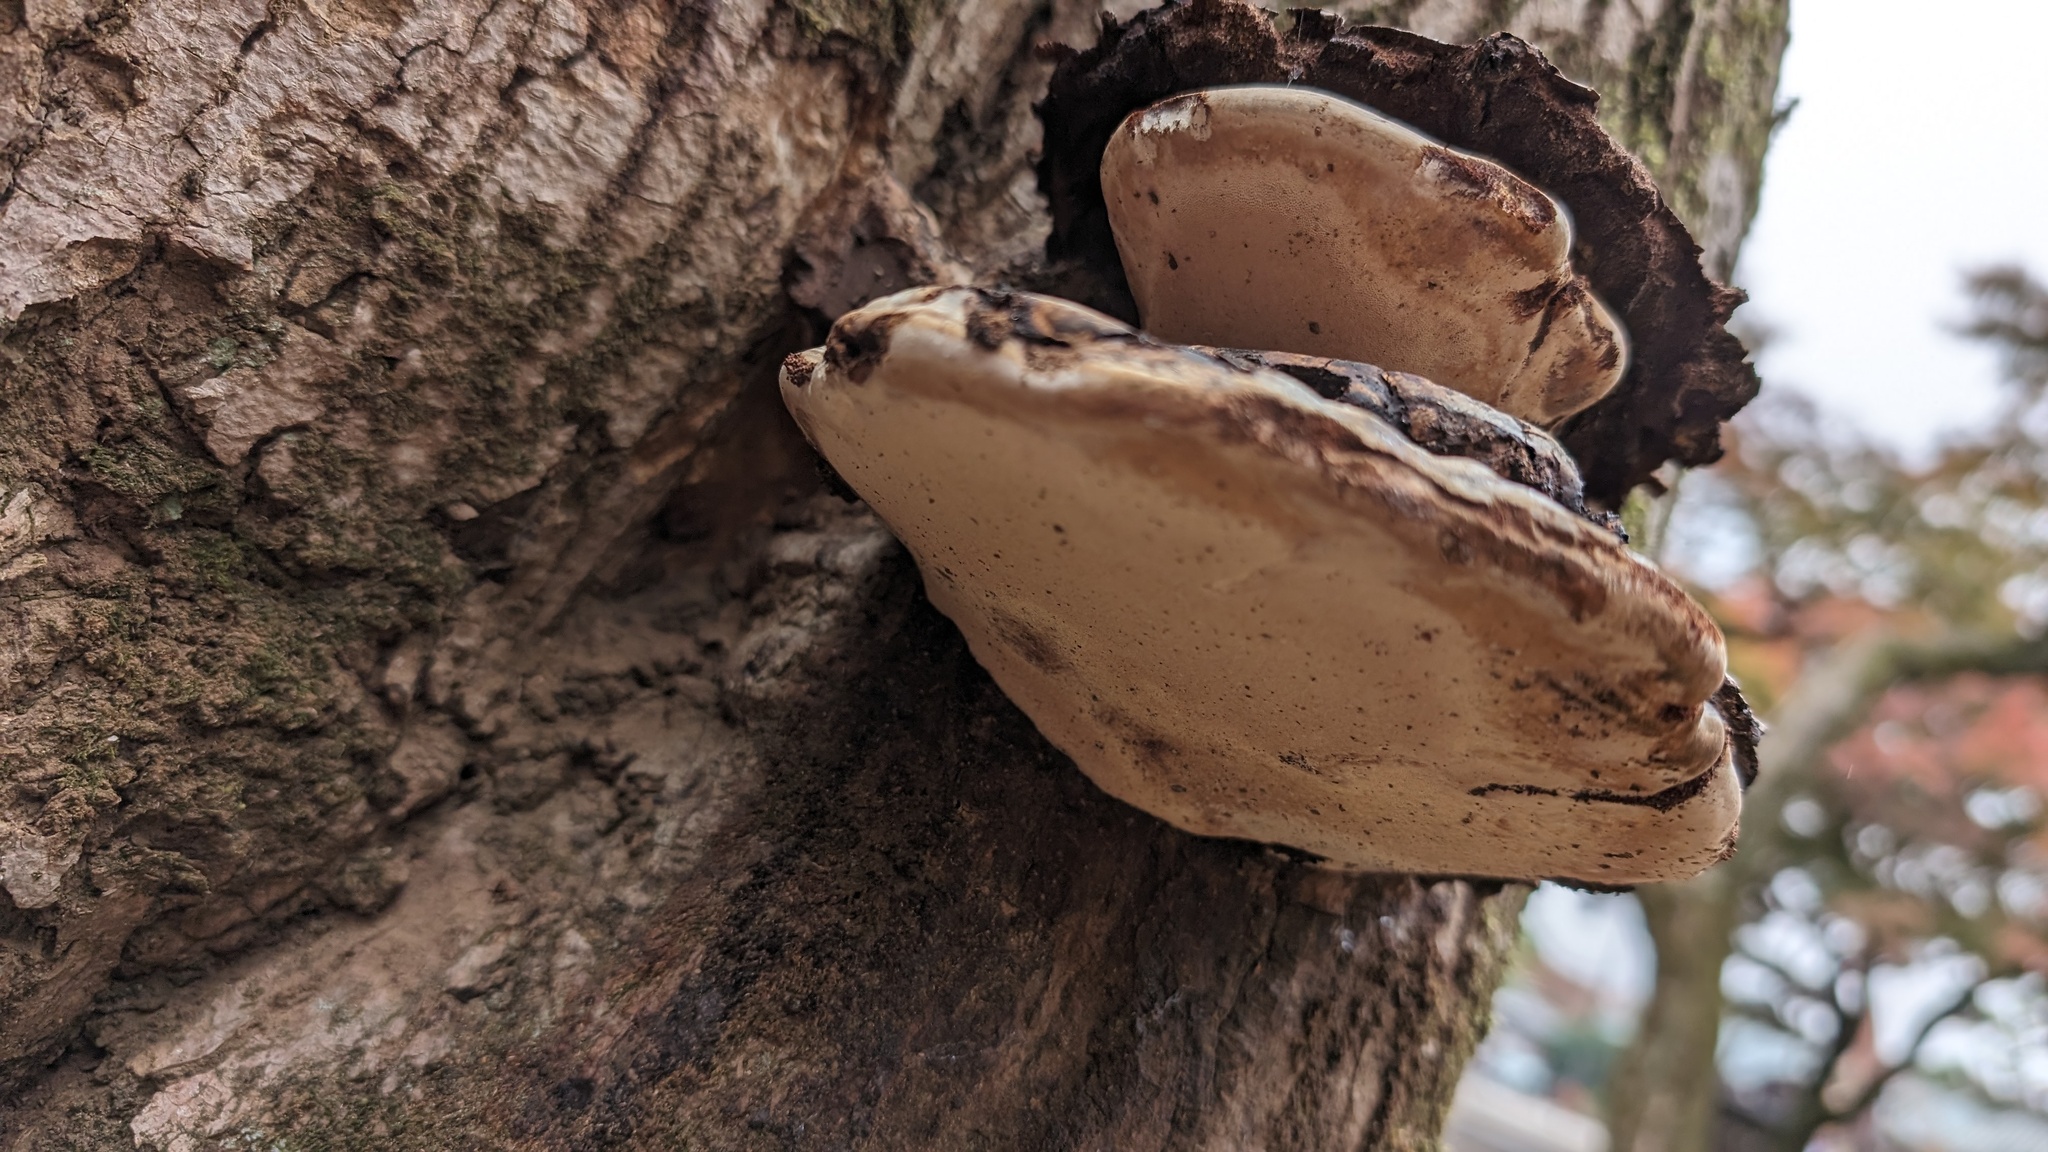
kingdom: Fungi
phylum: Basidiomycota
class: Agaricomycetes
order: Polyporales
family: Polyporaceae
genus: Ganoderma
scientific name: Ganoderma applanatum
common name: Artist's bracket
